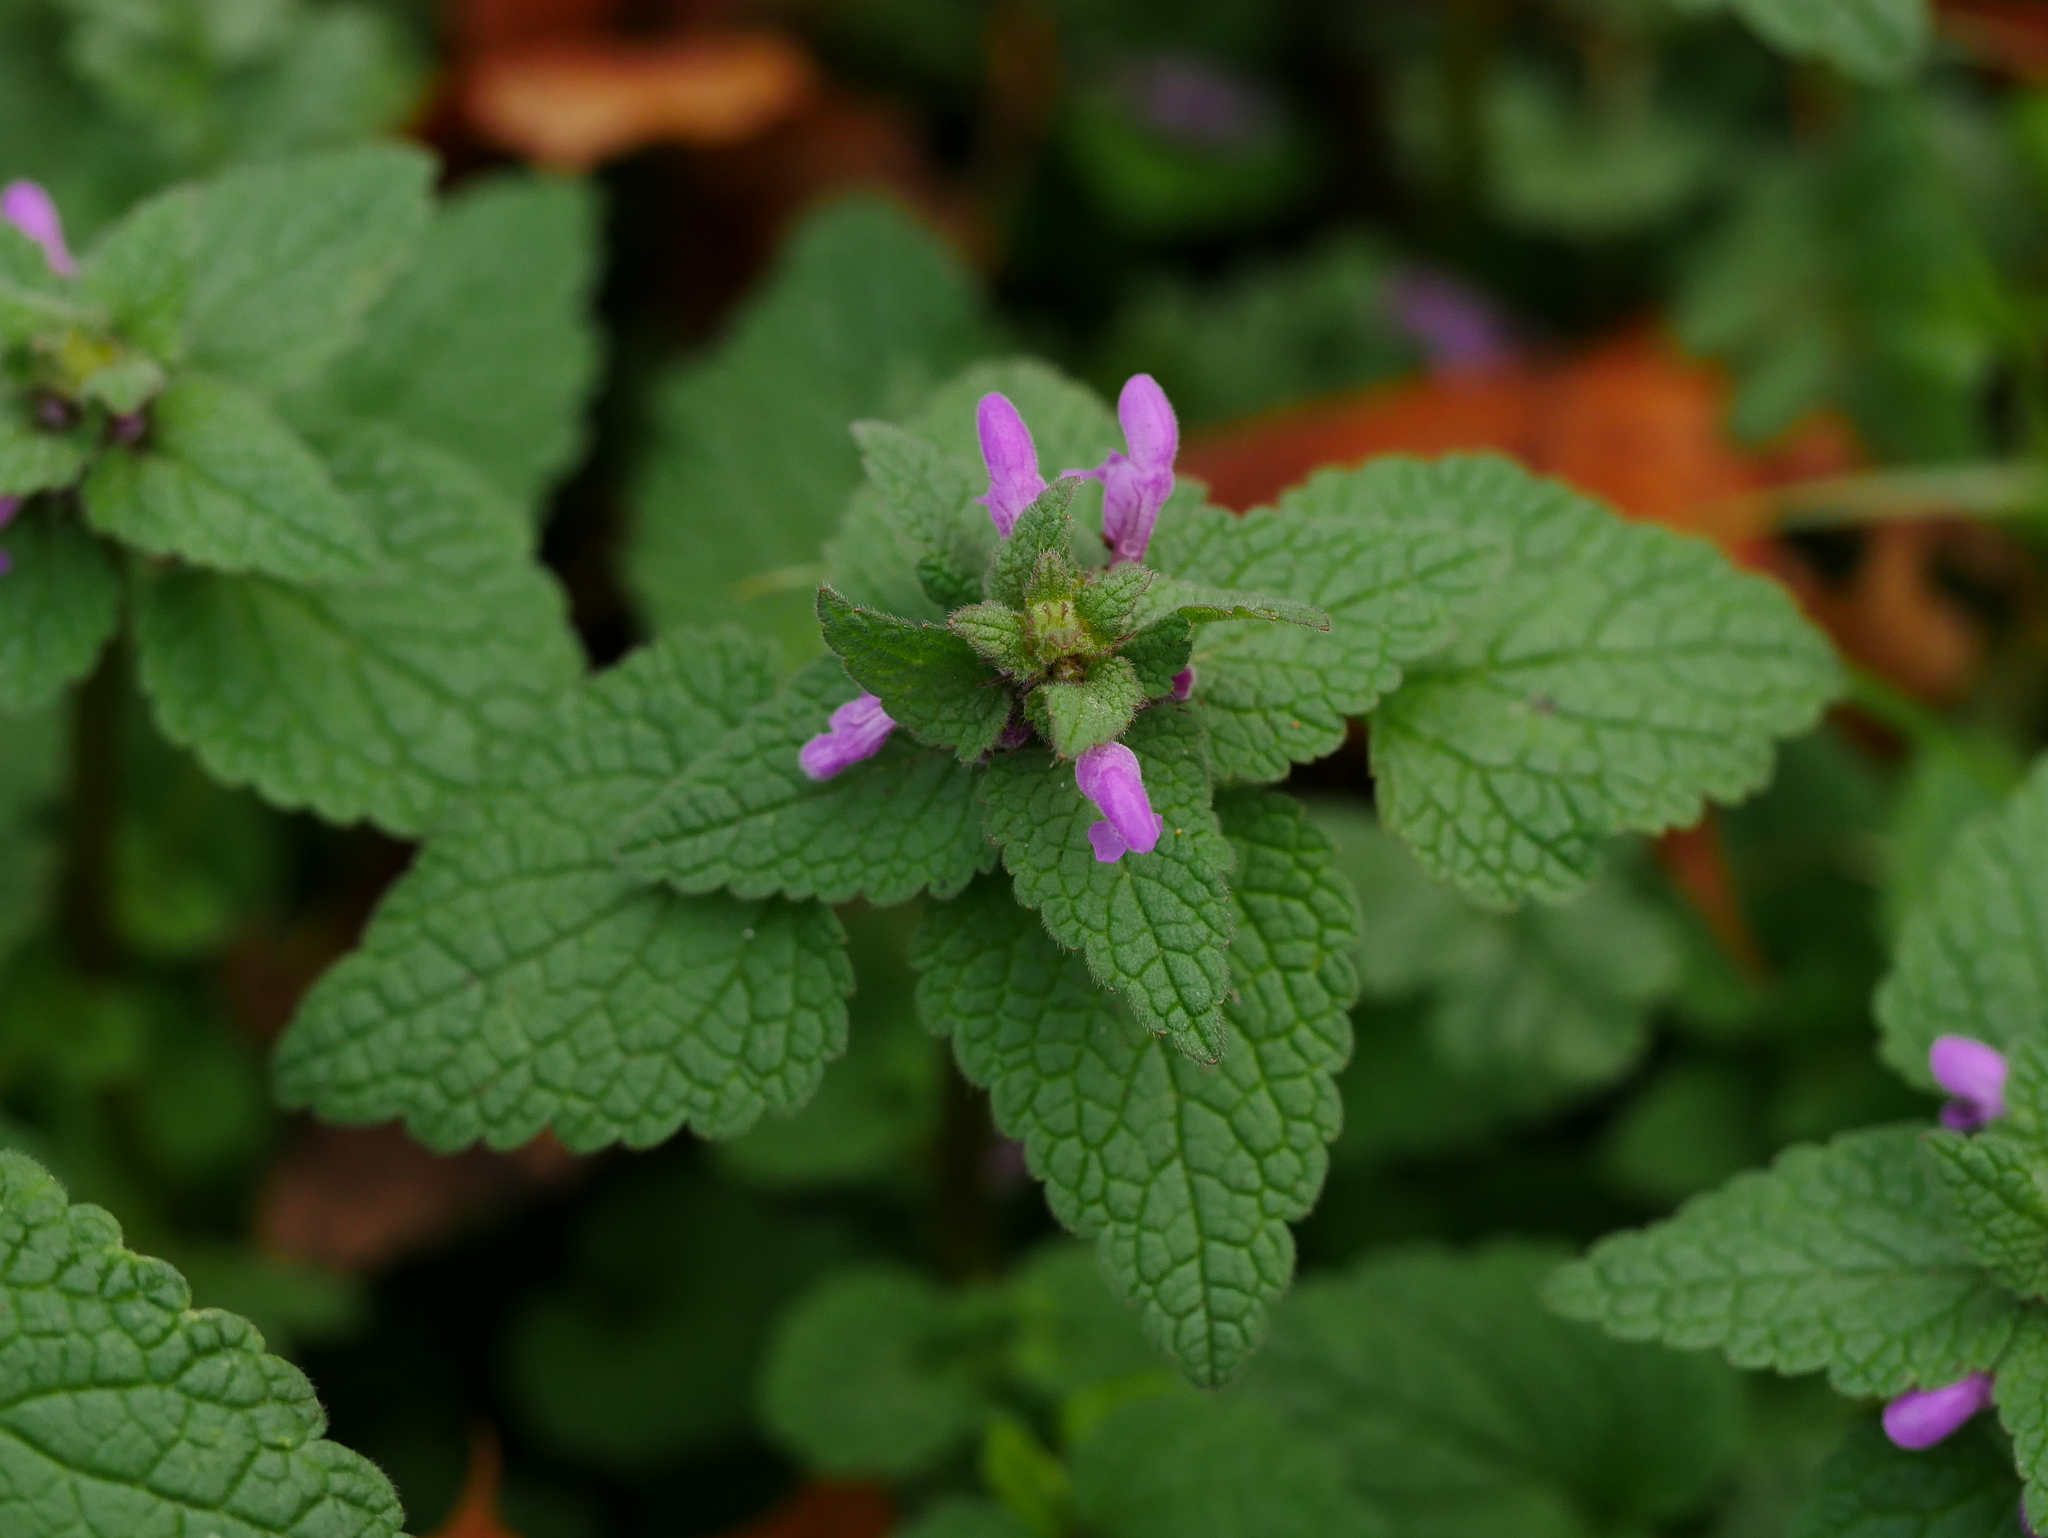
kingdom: Plantae
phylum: Tracheophyta
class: Magnoliopsida
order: Lamiales
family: Lamiaceae
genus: Lamium
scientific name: Lamium purpureum
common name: Red dead-nettle
